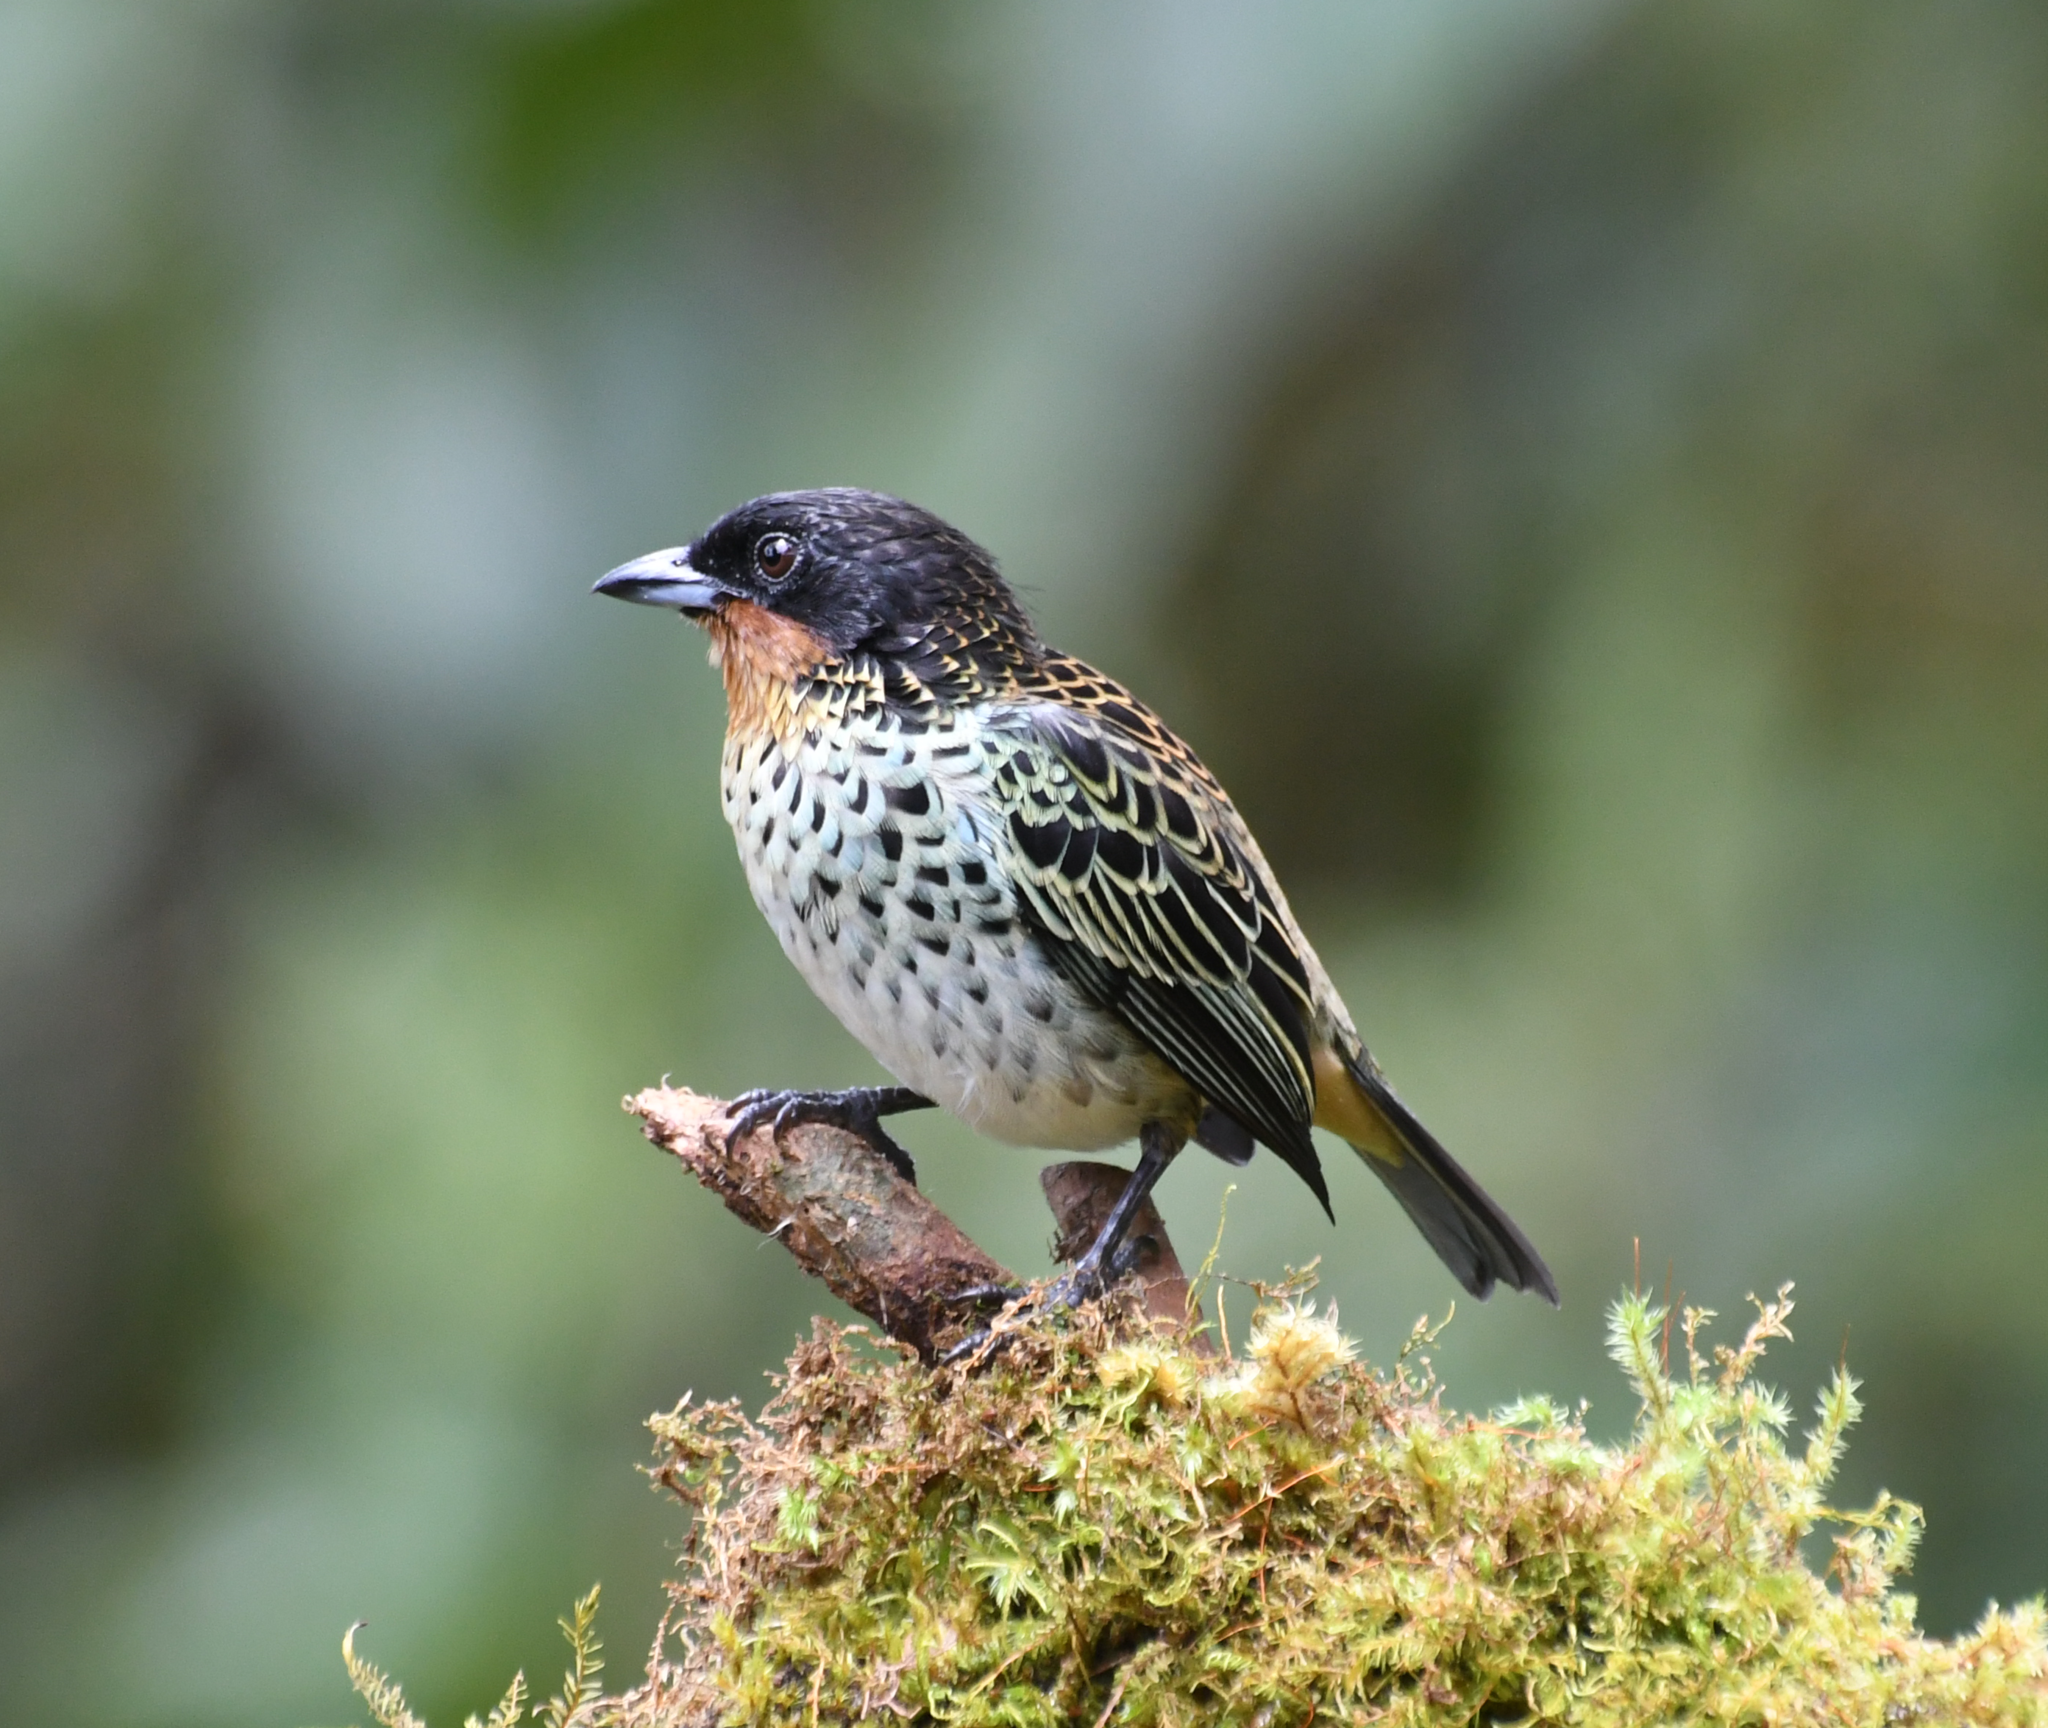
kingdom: Animalia
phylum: Chordata
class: Aves
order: Passeriformes
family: Thraupidae
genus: Ixothraupis
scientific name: Ixothraupis rufigula
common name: Rufous-throated tanager
